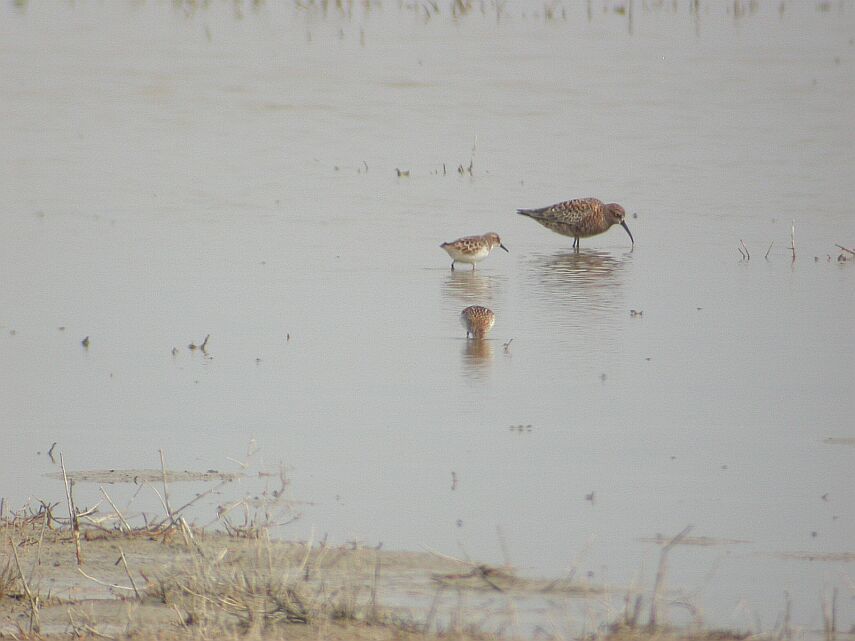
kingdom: Animalia
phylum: Chordata
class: Aves
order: Charadriiformes
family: Scolopacidae
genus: Calidris
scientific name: Calidris minuta
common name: Little stint
